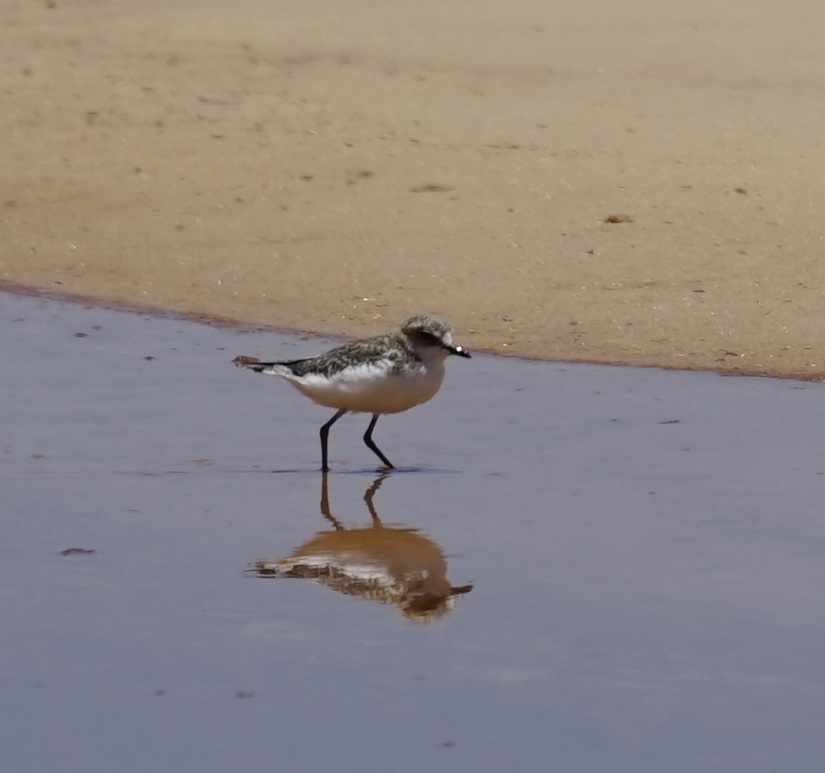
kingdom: Animalia
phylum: Chordata
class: Aves
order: Charadriiformes
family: Charadriidae
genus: Anarhynchus
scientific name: Anarhynchus
